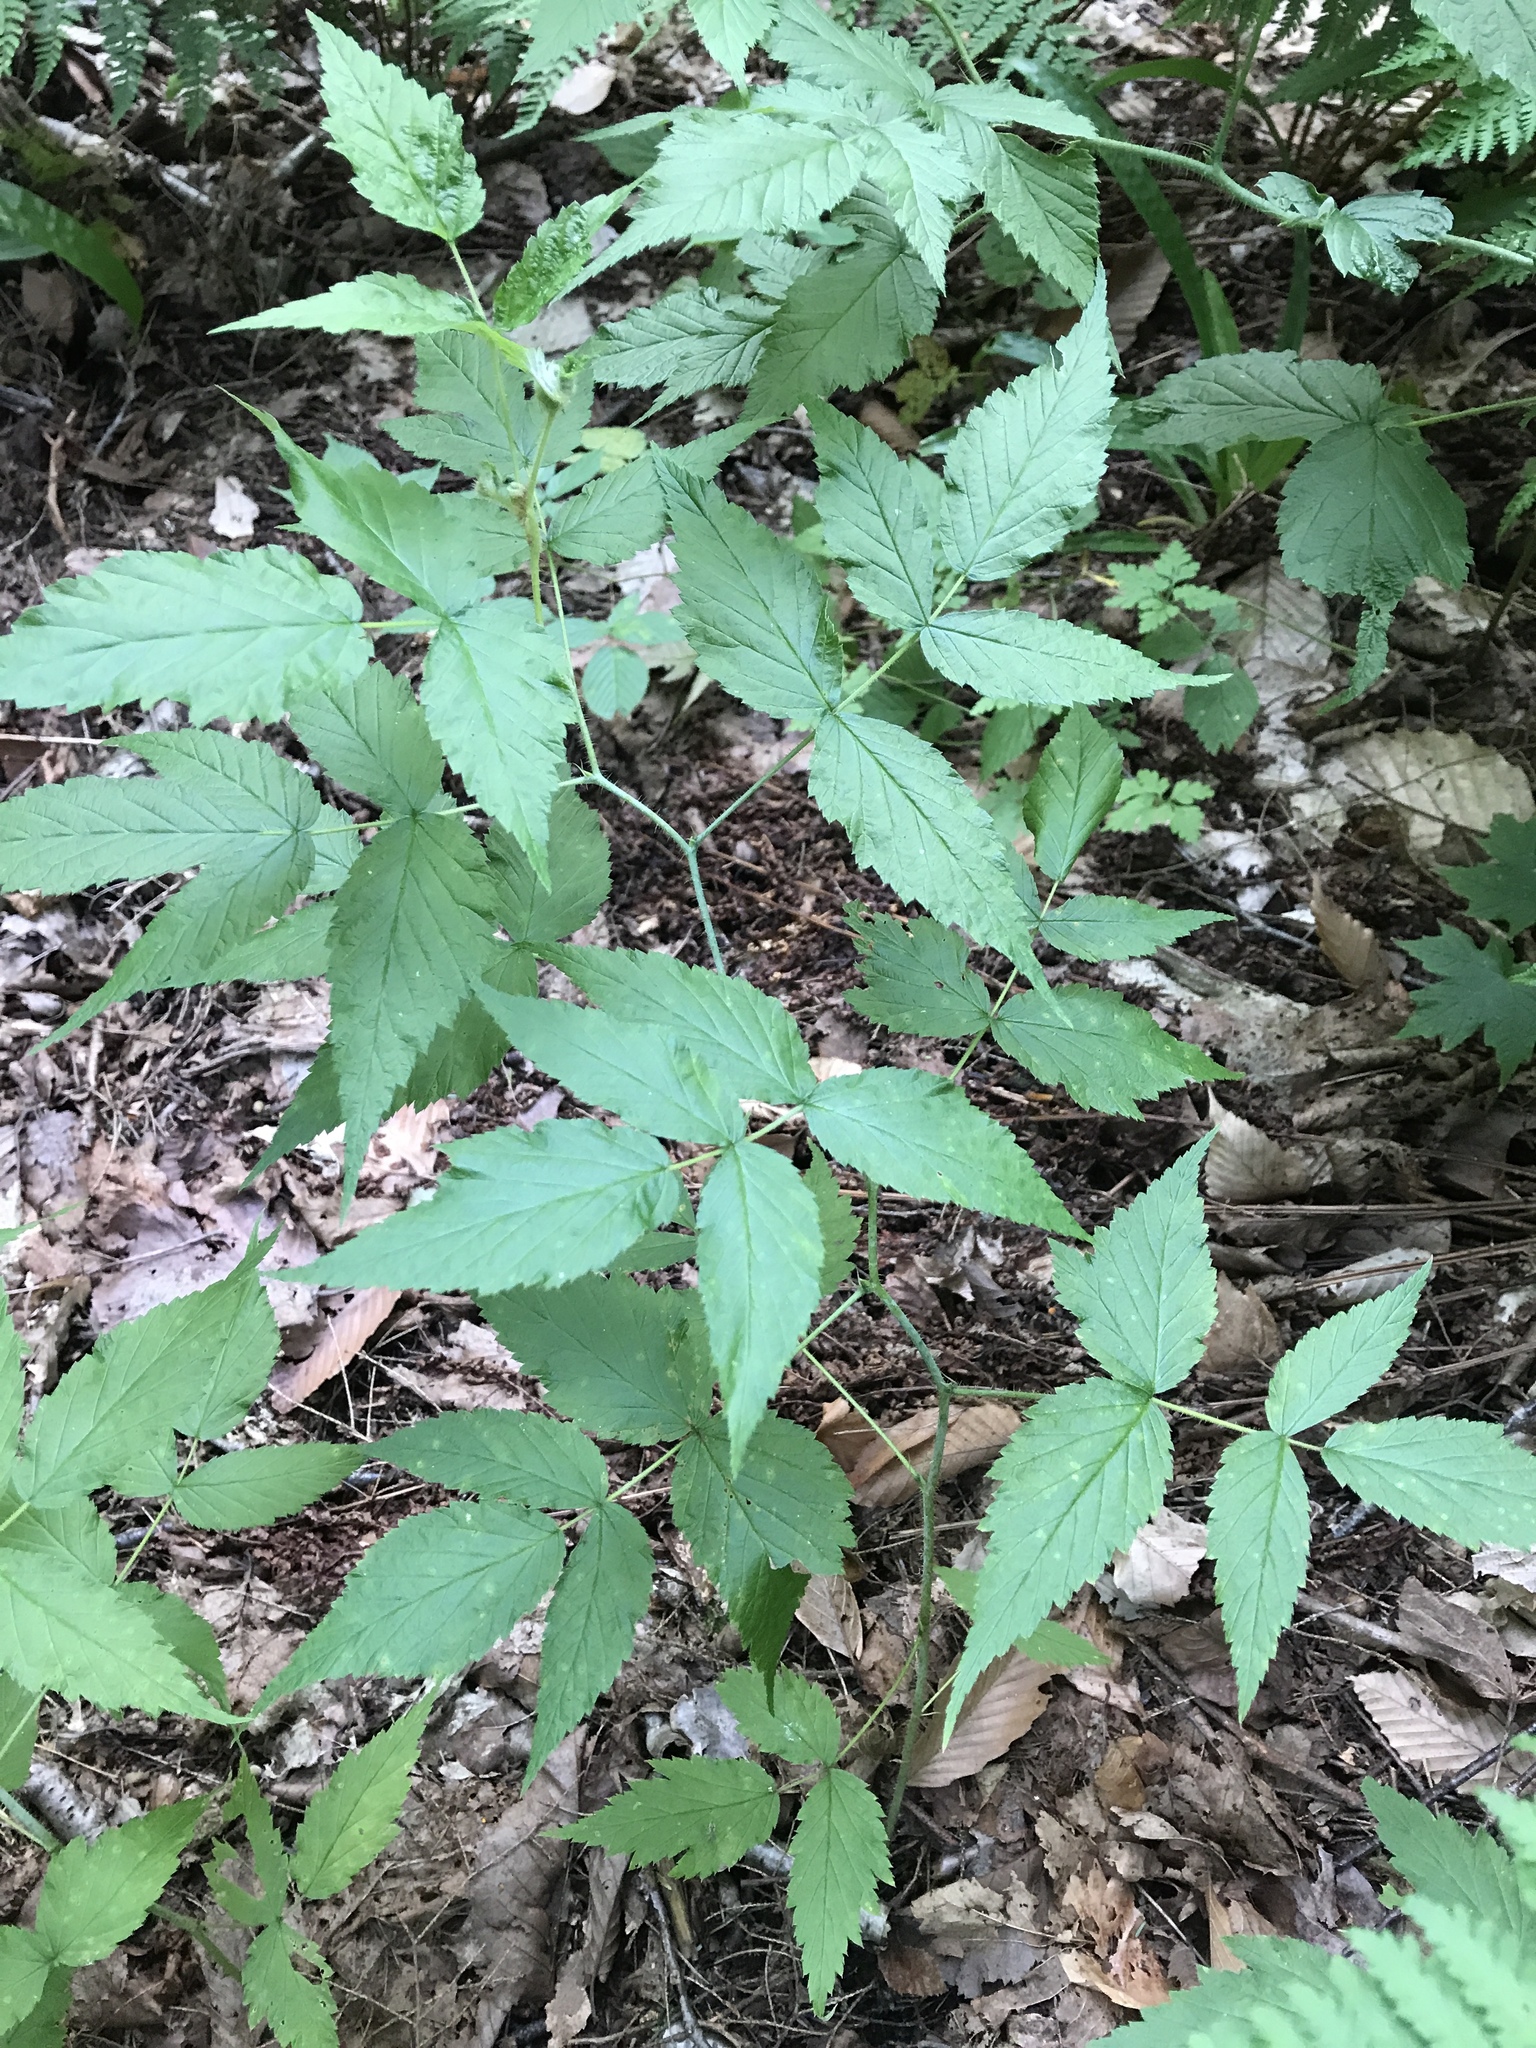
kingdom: Plantae
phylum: Tracheophyta
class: Magnoliopsida
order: Rosales
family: Rosaceae
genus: Rubus
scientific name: Rubus idaeus
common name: Raspberry
